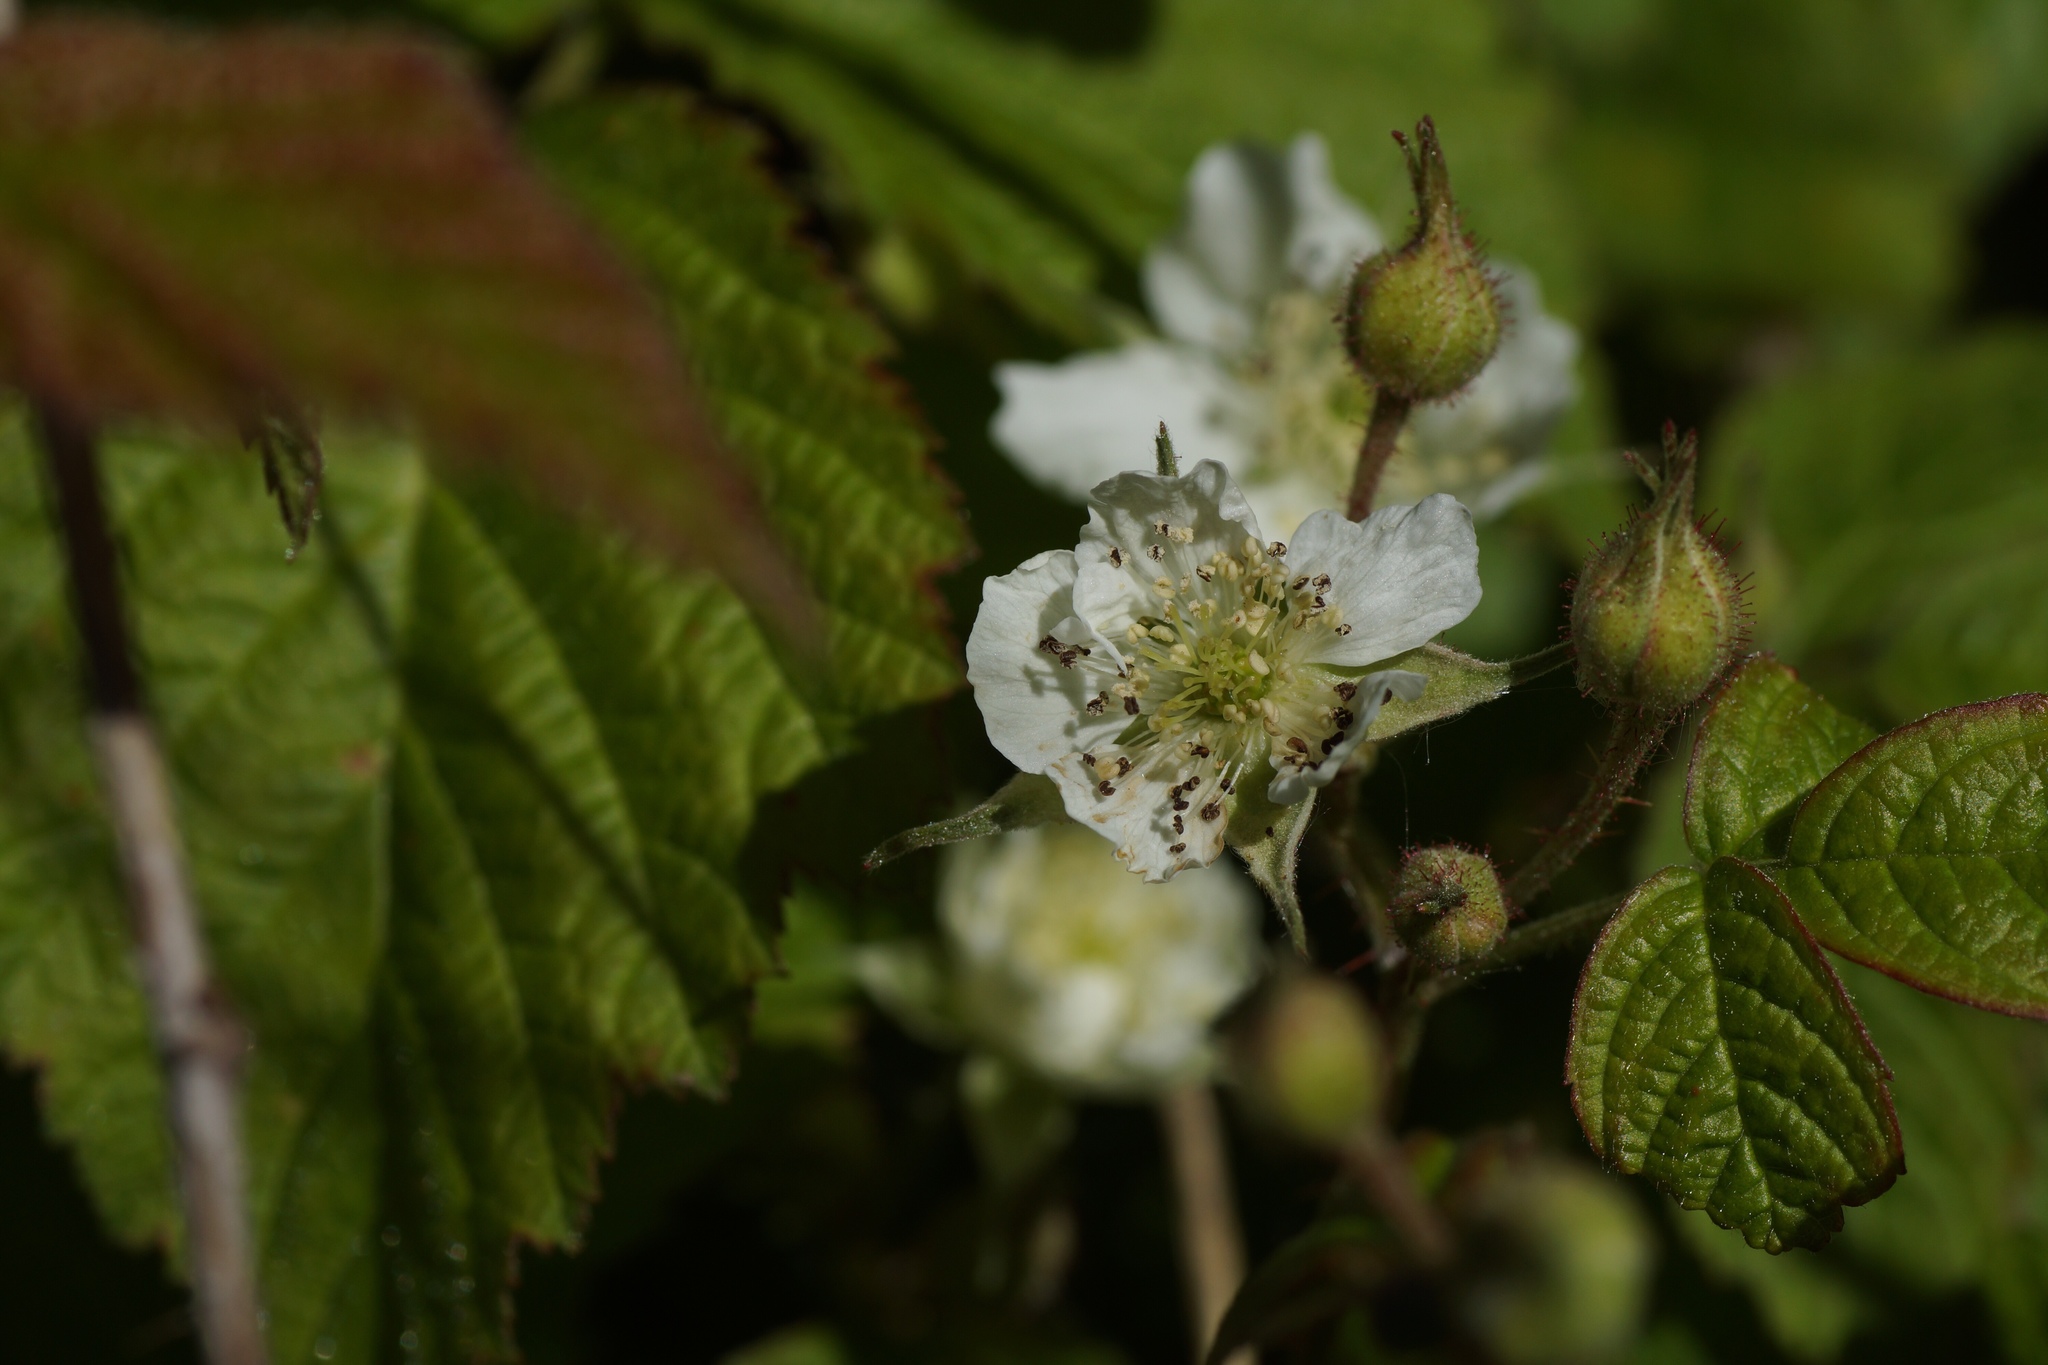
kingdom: Plantae
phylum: Tracheophyta
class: Magnoliopsida
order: Rosales
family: Rosaceae
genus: Rubus
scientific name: Rubus caesius
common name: Dewberry
